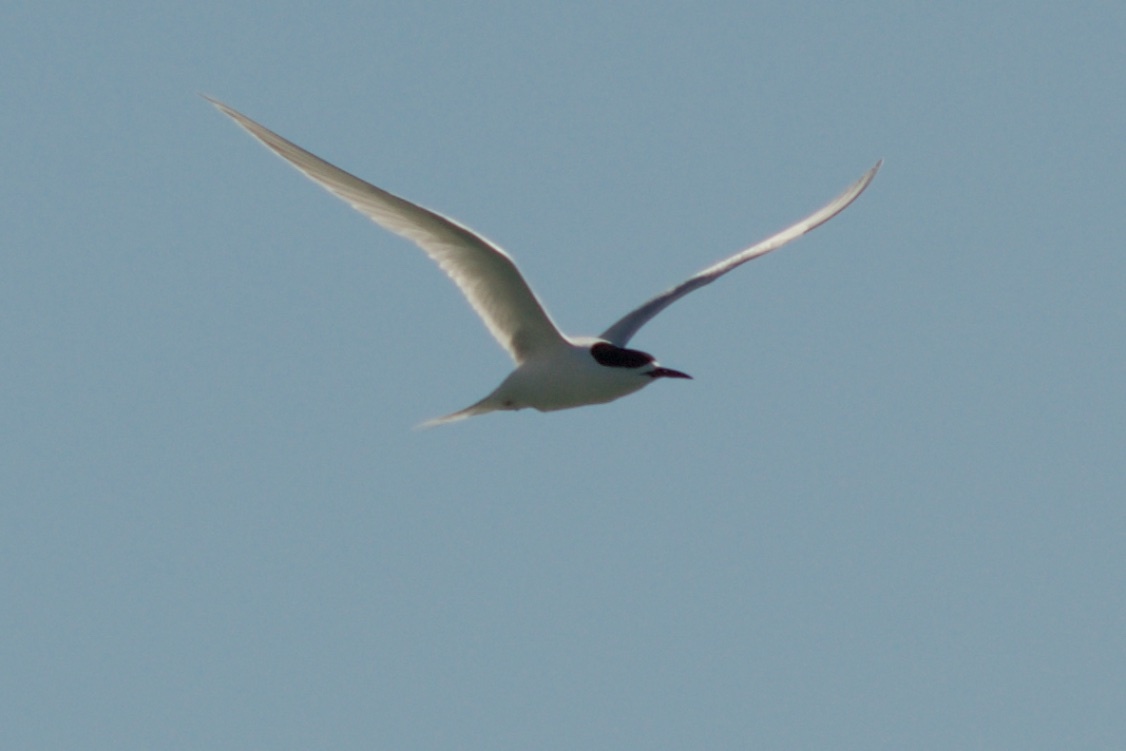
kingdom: Animalia
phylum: Chordata
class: Aves
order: Charadriiformes
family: Laridae
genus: Sterna
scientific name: Sterna striata
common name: White-fronted tern
